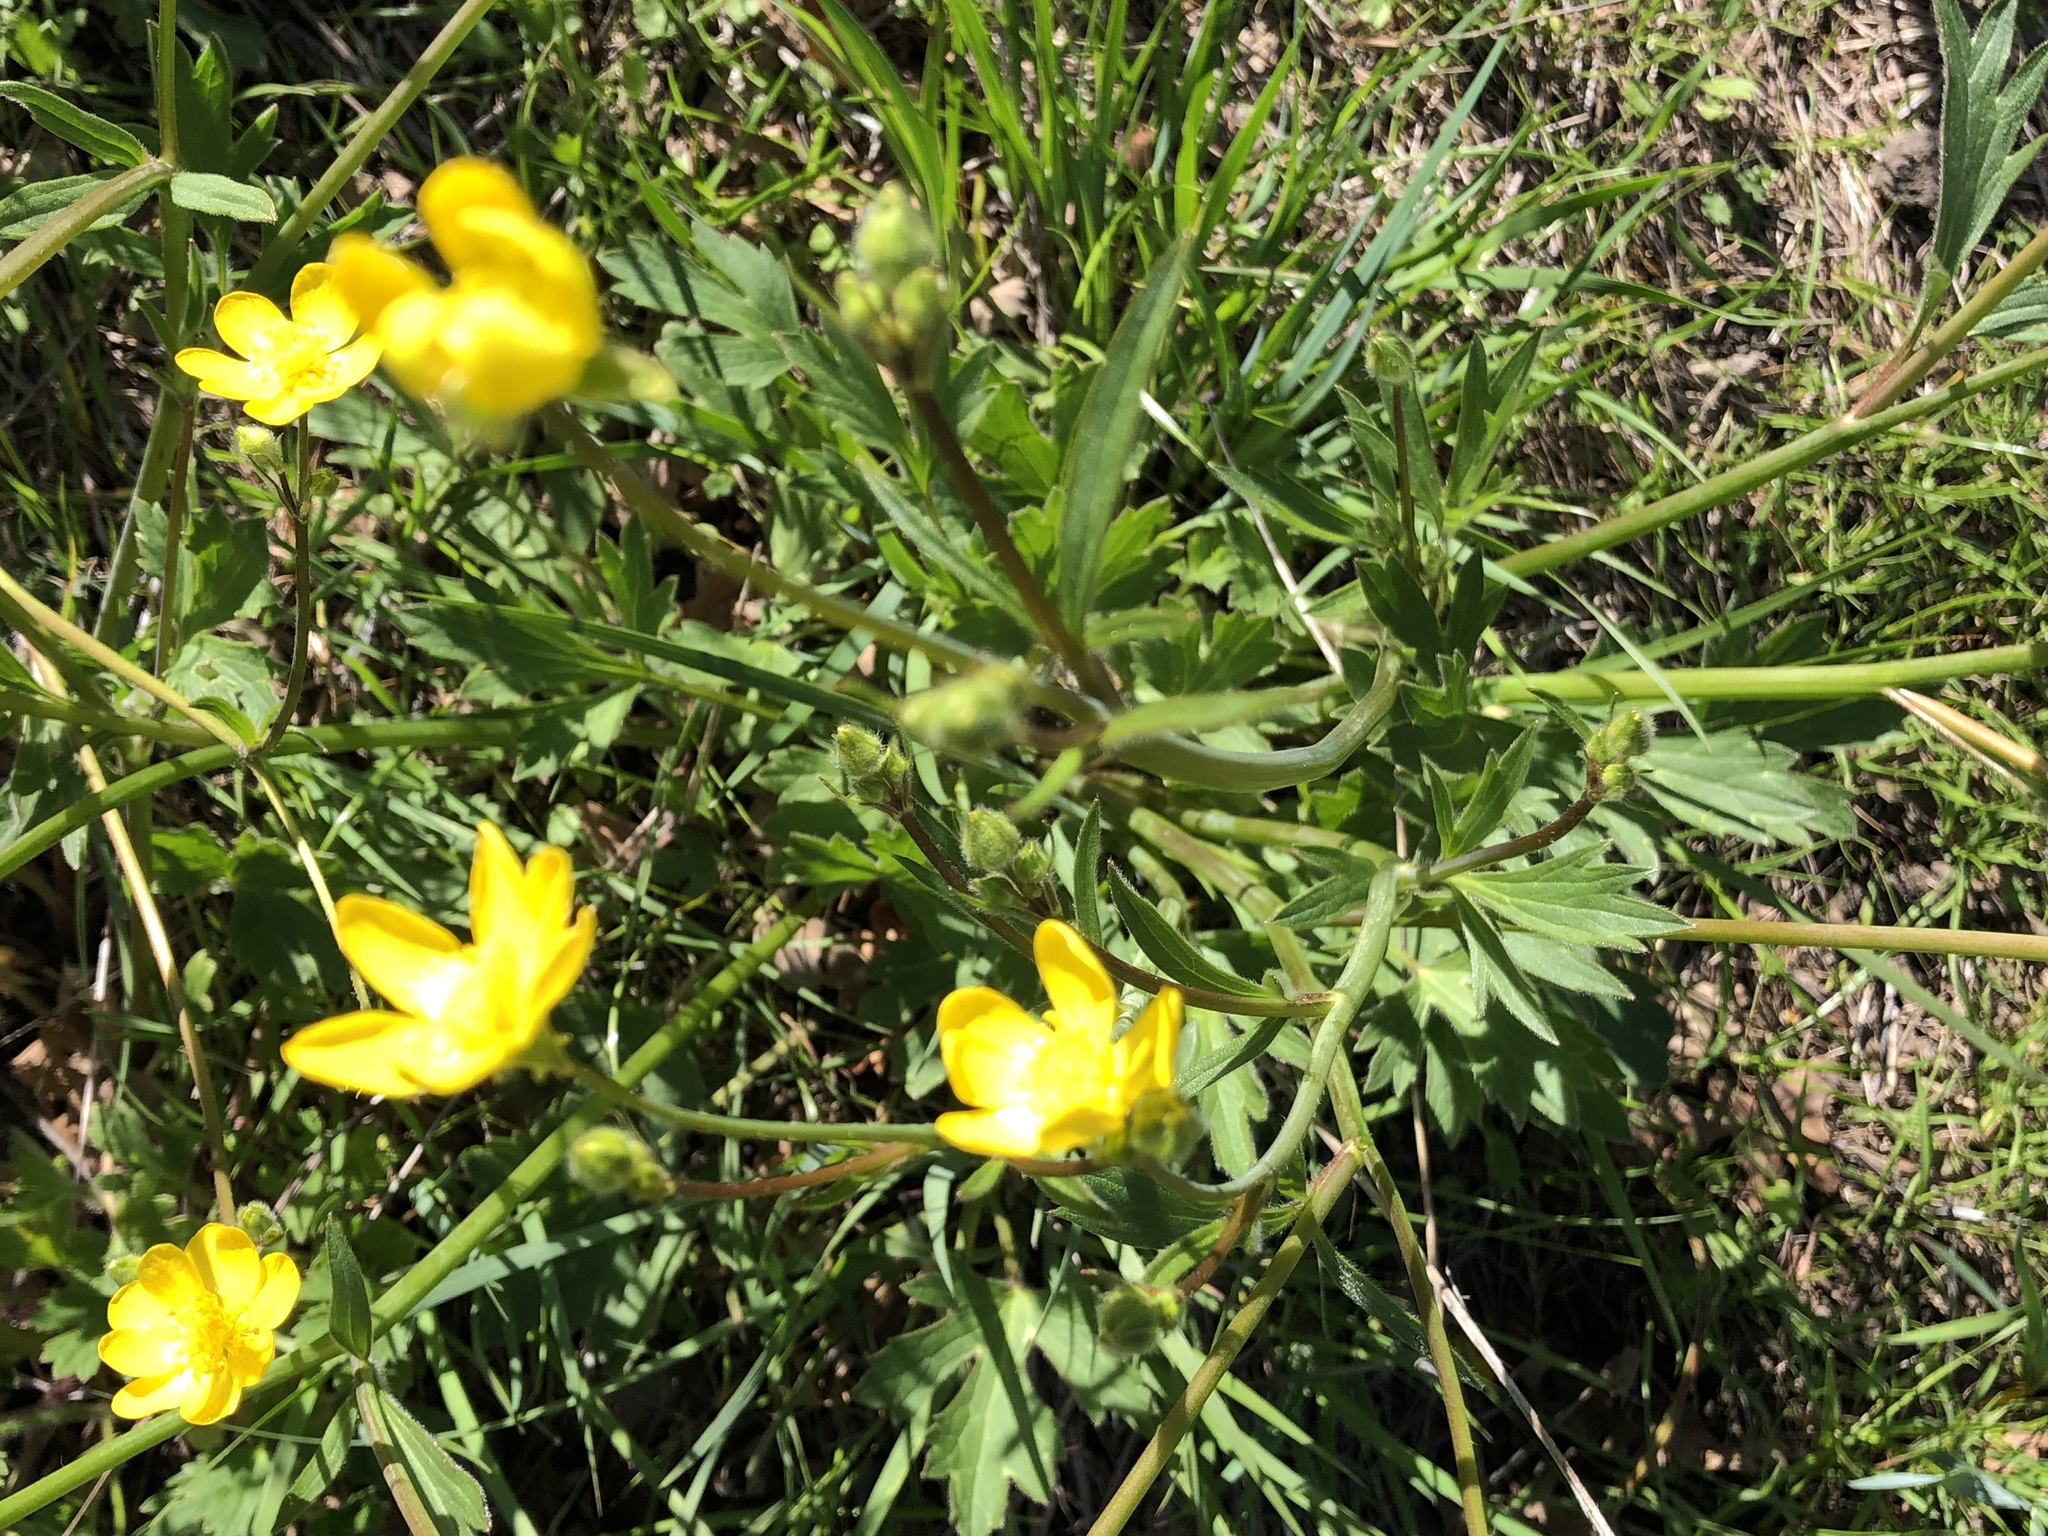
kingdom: Plantae
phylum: Tracheophyta
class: Magnoliopsida
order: Ranunculales
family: Ranunculaceae
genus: Ranunculus
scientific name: Ranunculus californicus
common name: California buttercup
